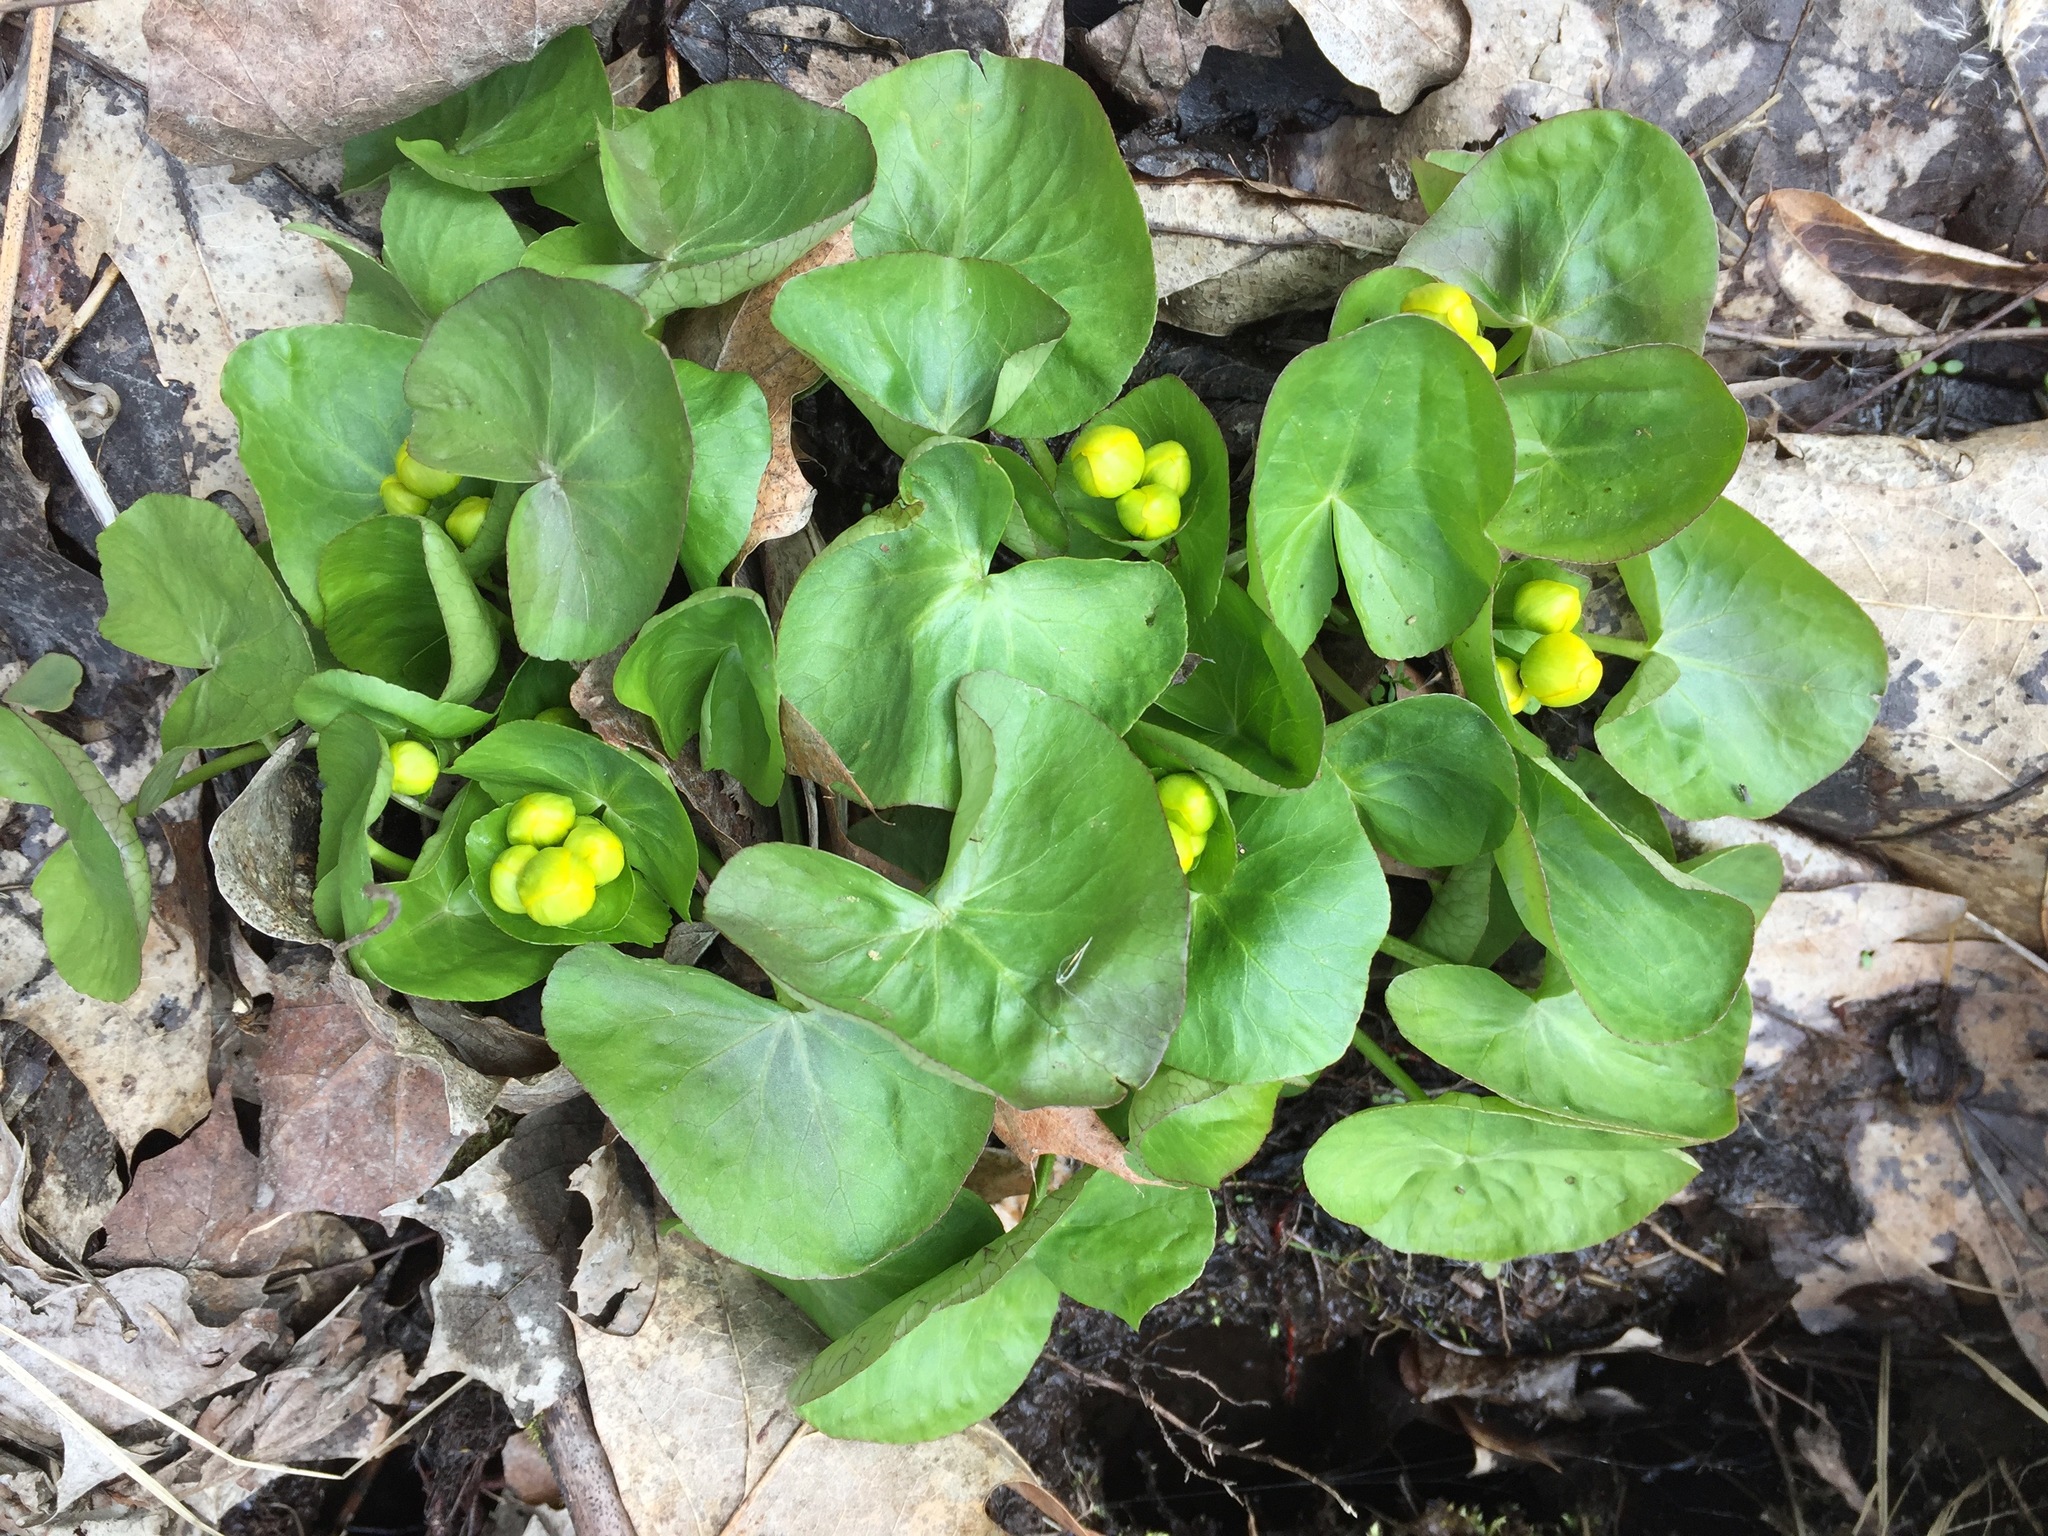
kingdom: Plantae
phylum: Tracheophyta
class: Magnoliopsida
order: Ranunculales
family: Ranunculaceae
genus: Caltha
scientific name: Caltha palustris
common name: Marsh marigold
